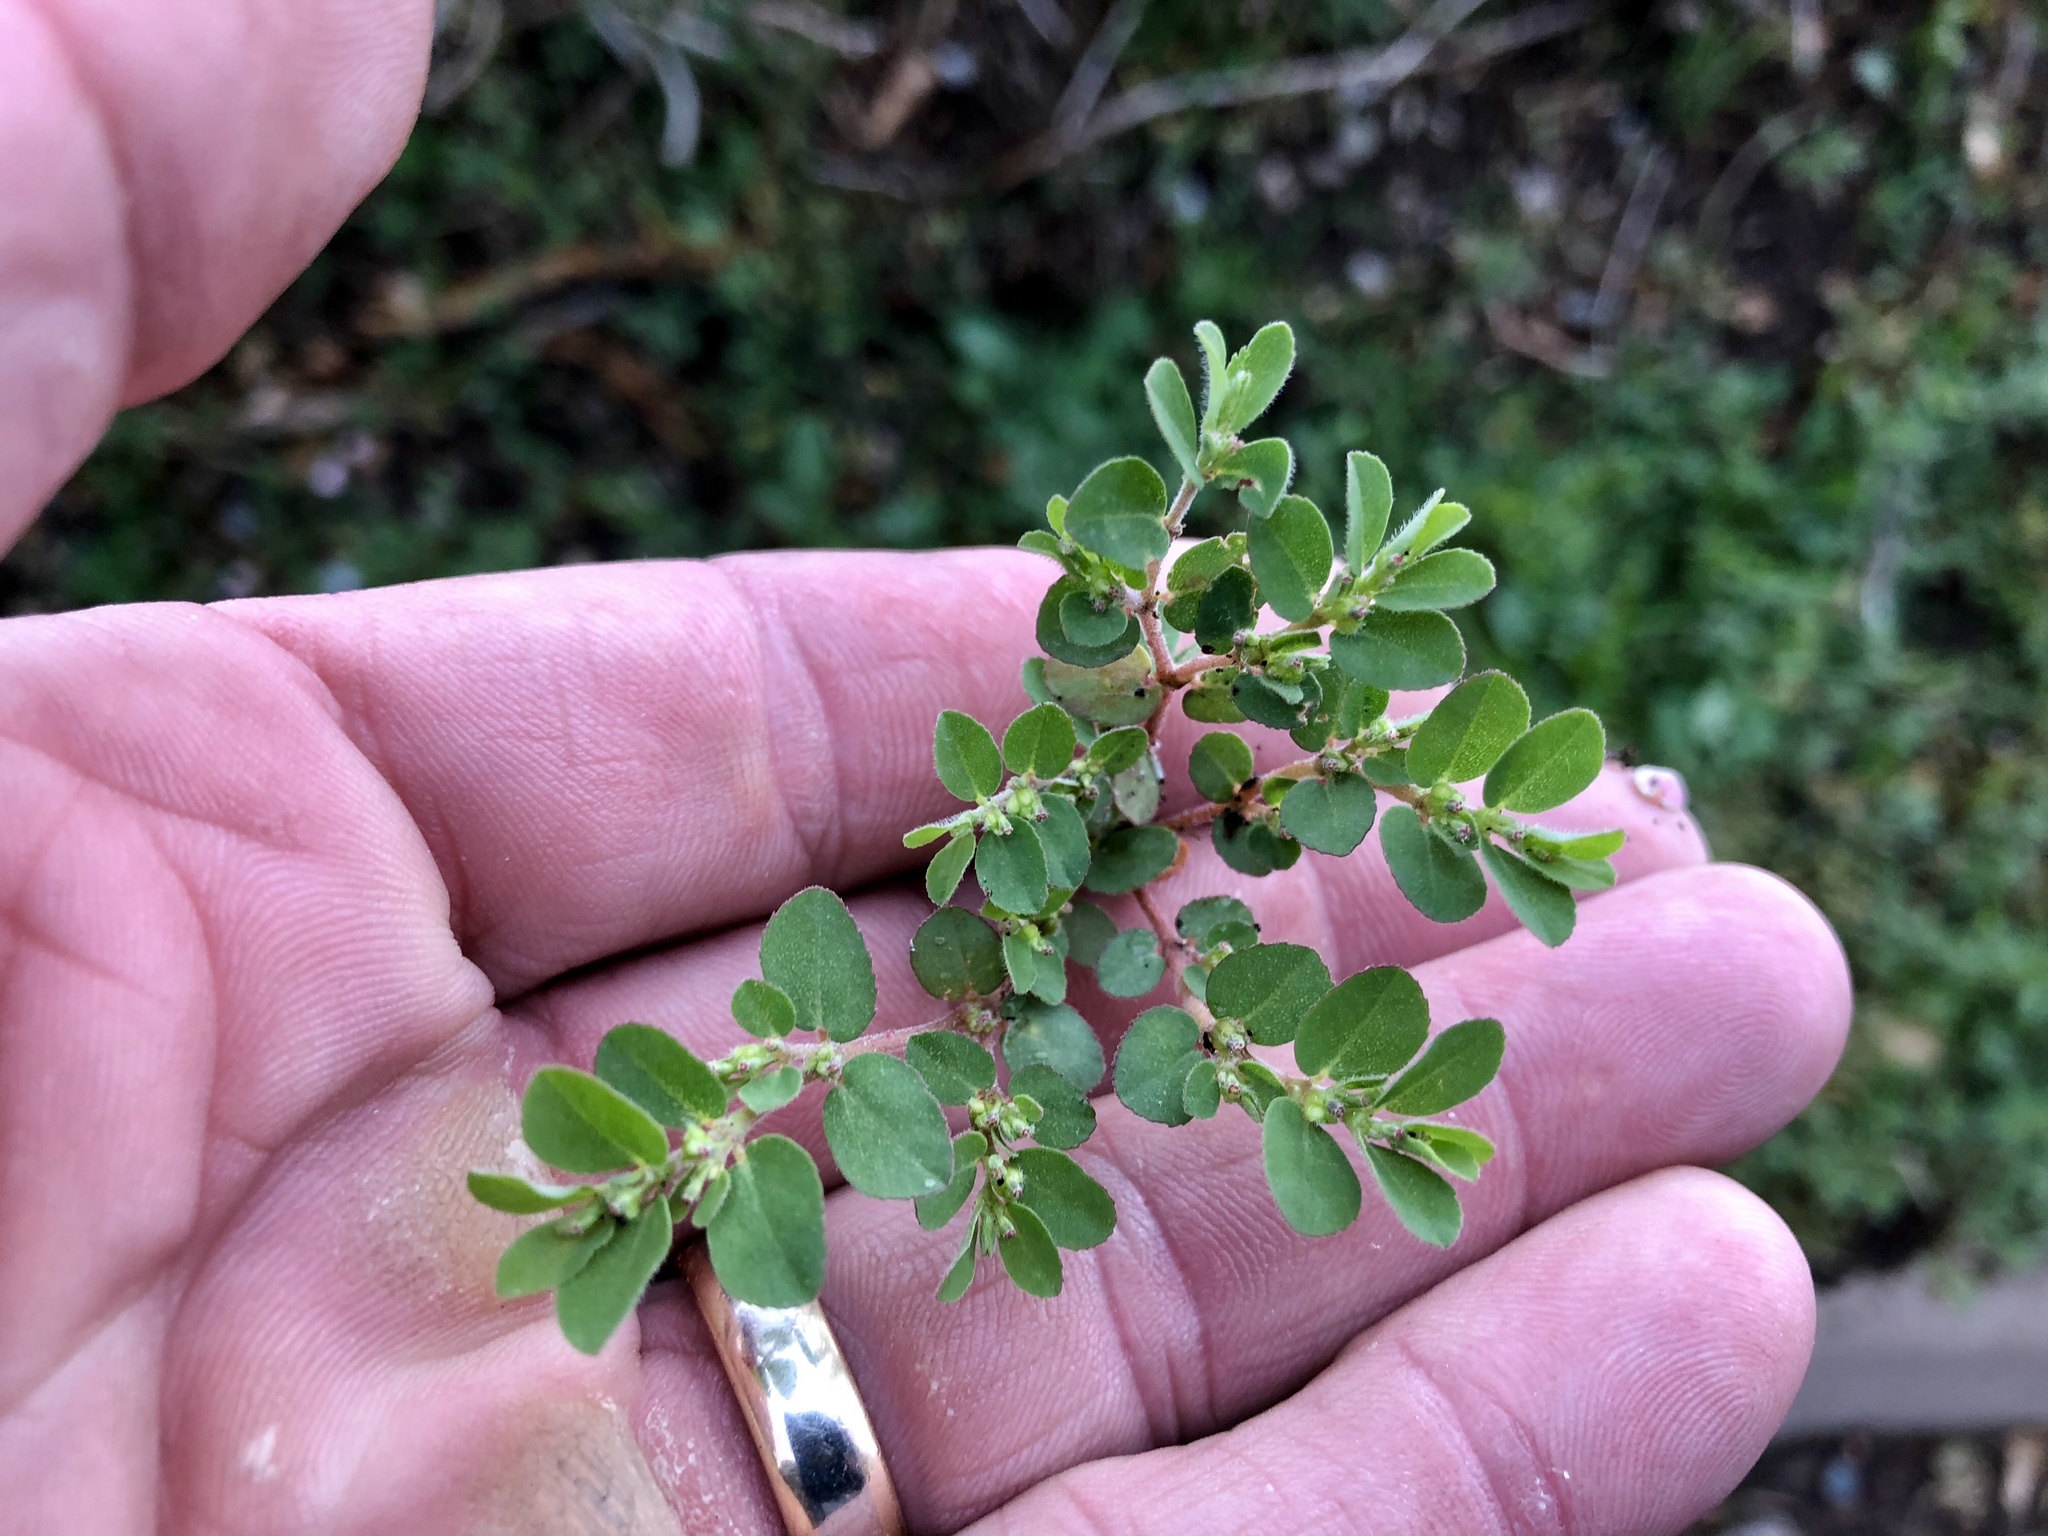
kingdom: Plantae
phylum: Tracheophyta
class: Magnoliopsida
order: Malpighiales
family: Euphorbiaceae
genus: Euphorbia
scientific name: Euphorbia prostrata
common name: Prostrate sandmat
